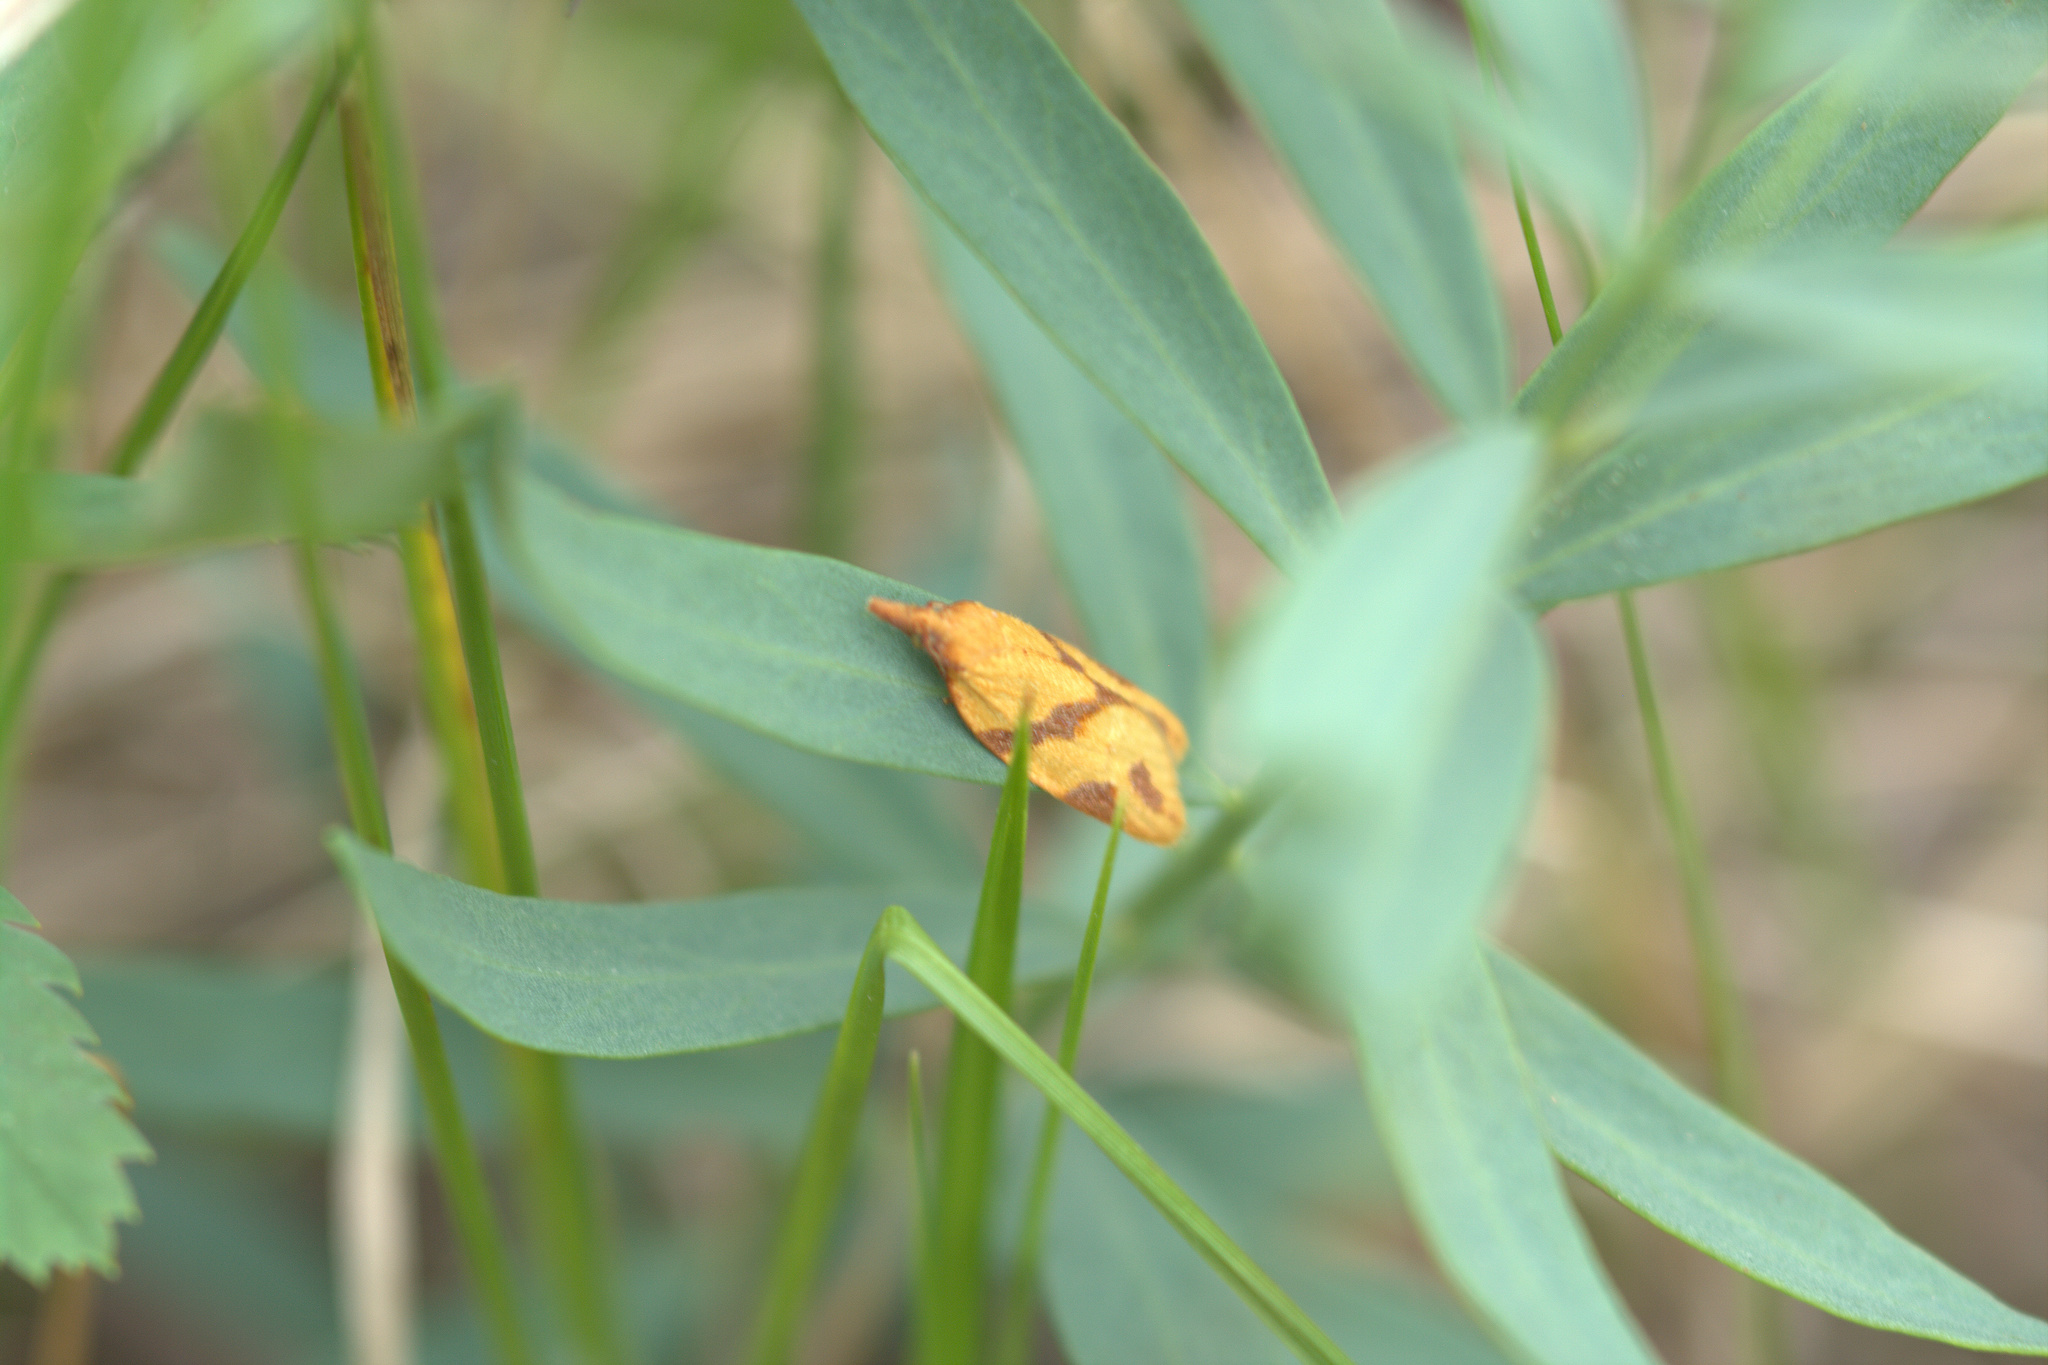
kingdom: Animalia
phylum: Arthropoda
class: Insecta
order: Lepidoptera
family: Tortricidae
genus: Sparganothis
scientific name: Sparganothis unifasciana
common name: One-lined sparganothis moth
